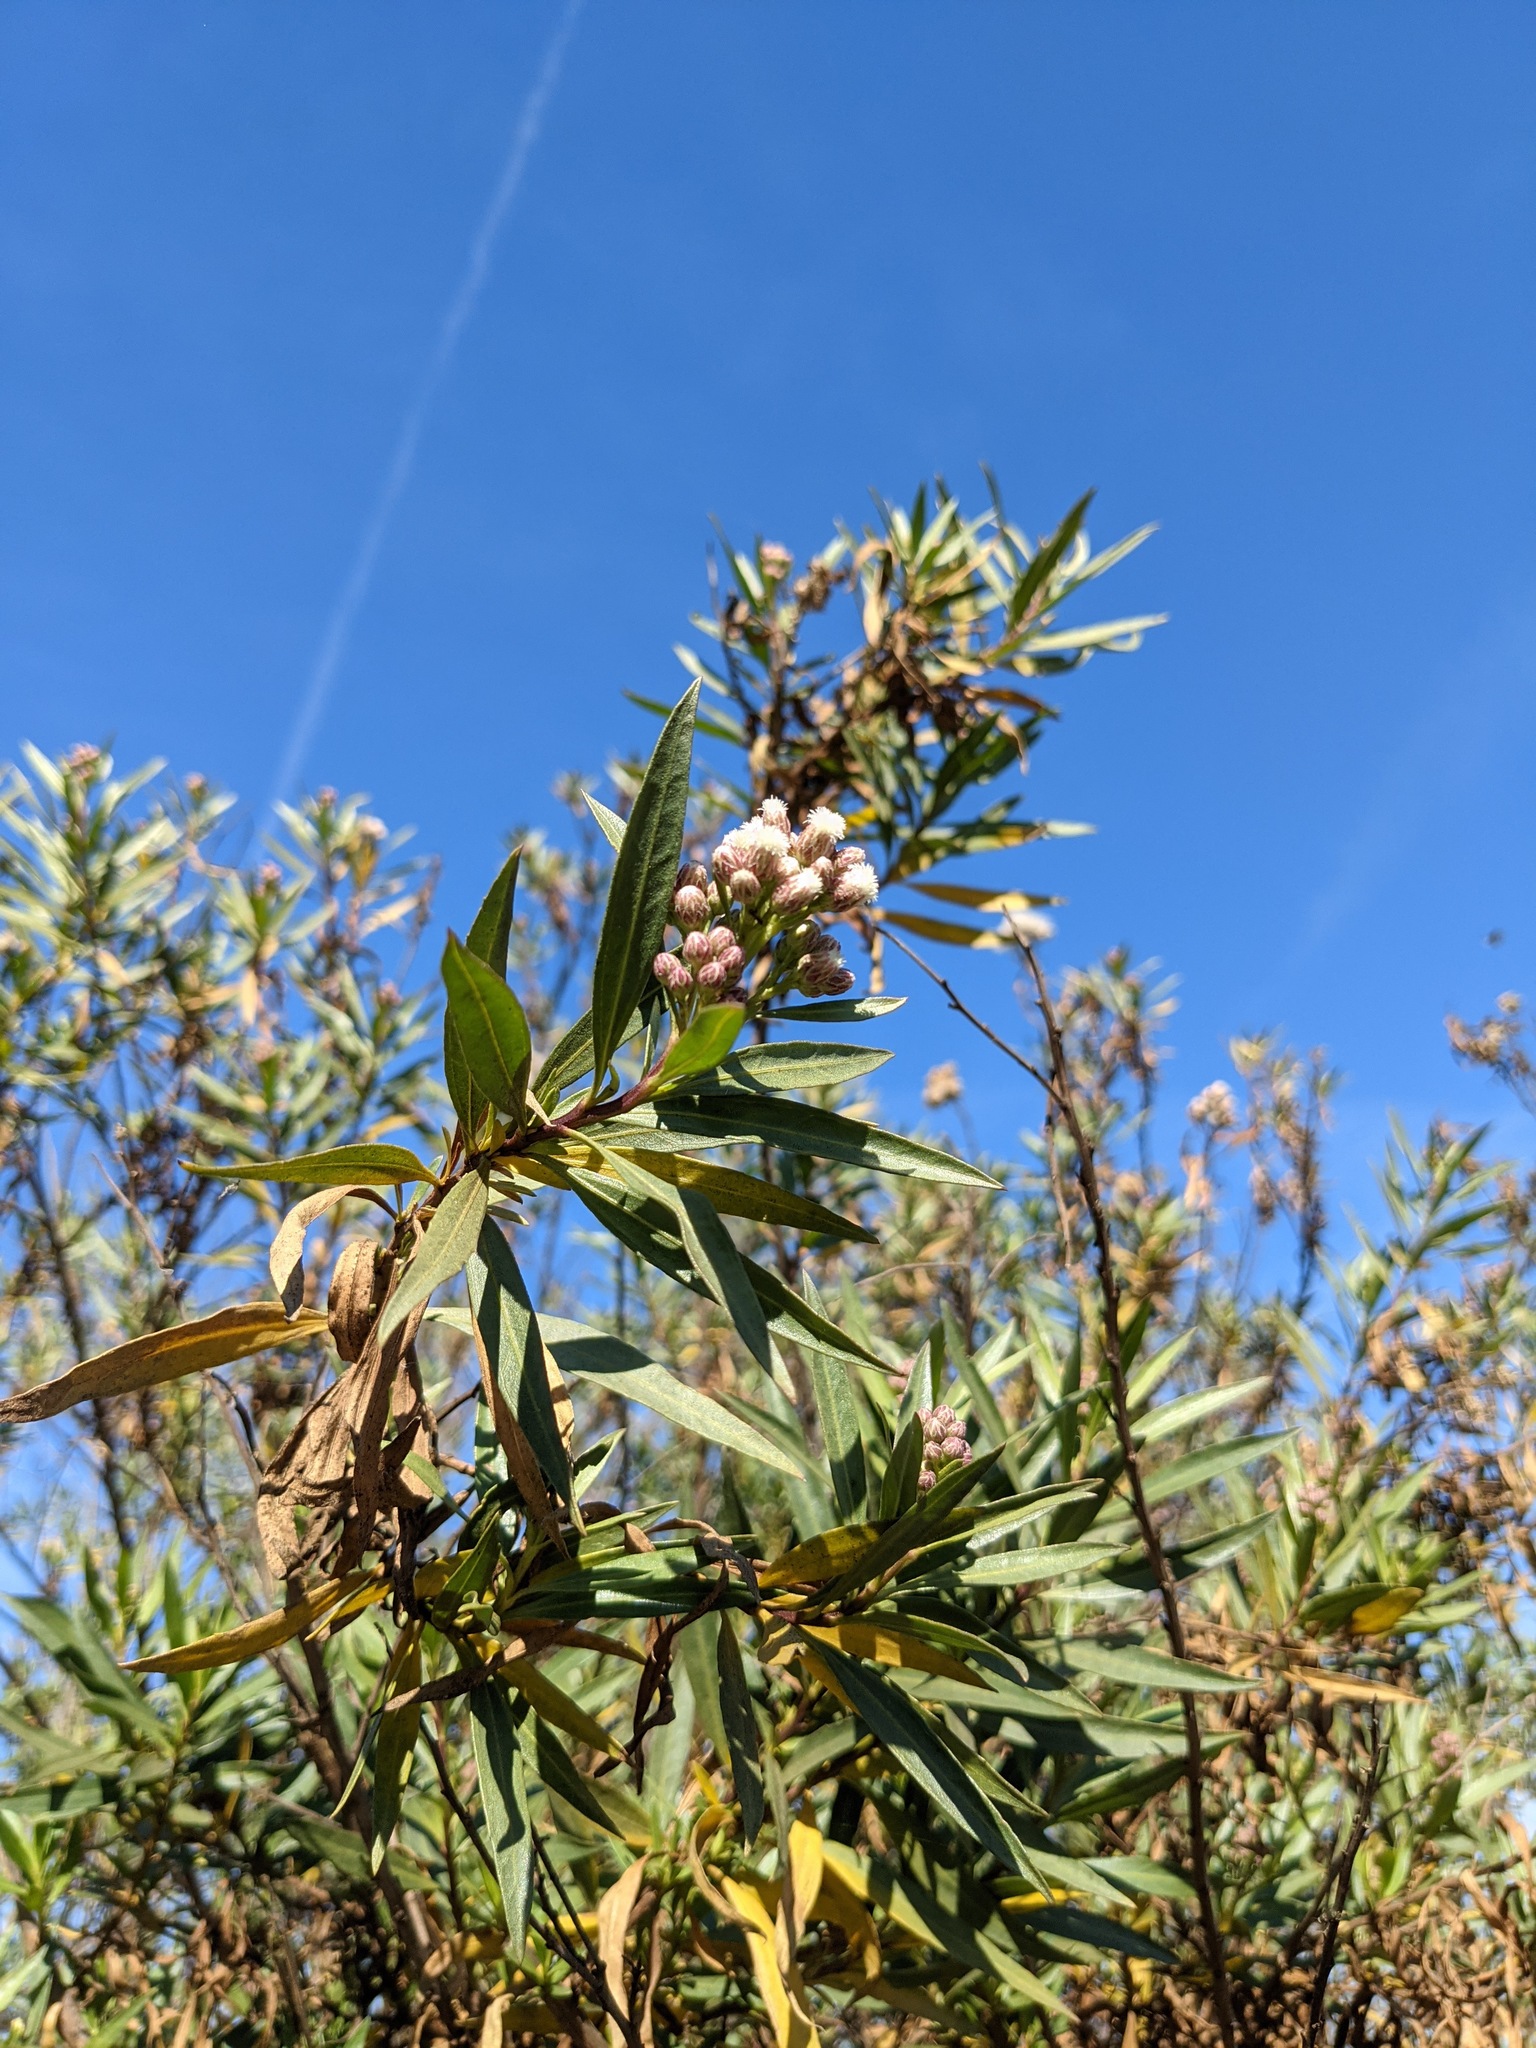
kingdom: Plantae
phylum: Tracheophyta
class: Magnoliopsida
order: Asterales
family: Asteraceae
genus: Baccharis
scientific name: Baccharis salicifolia
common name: Sticky baccharis
